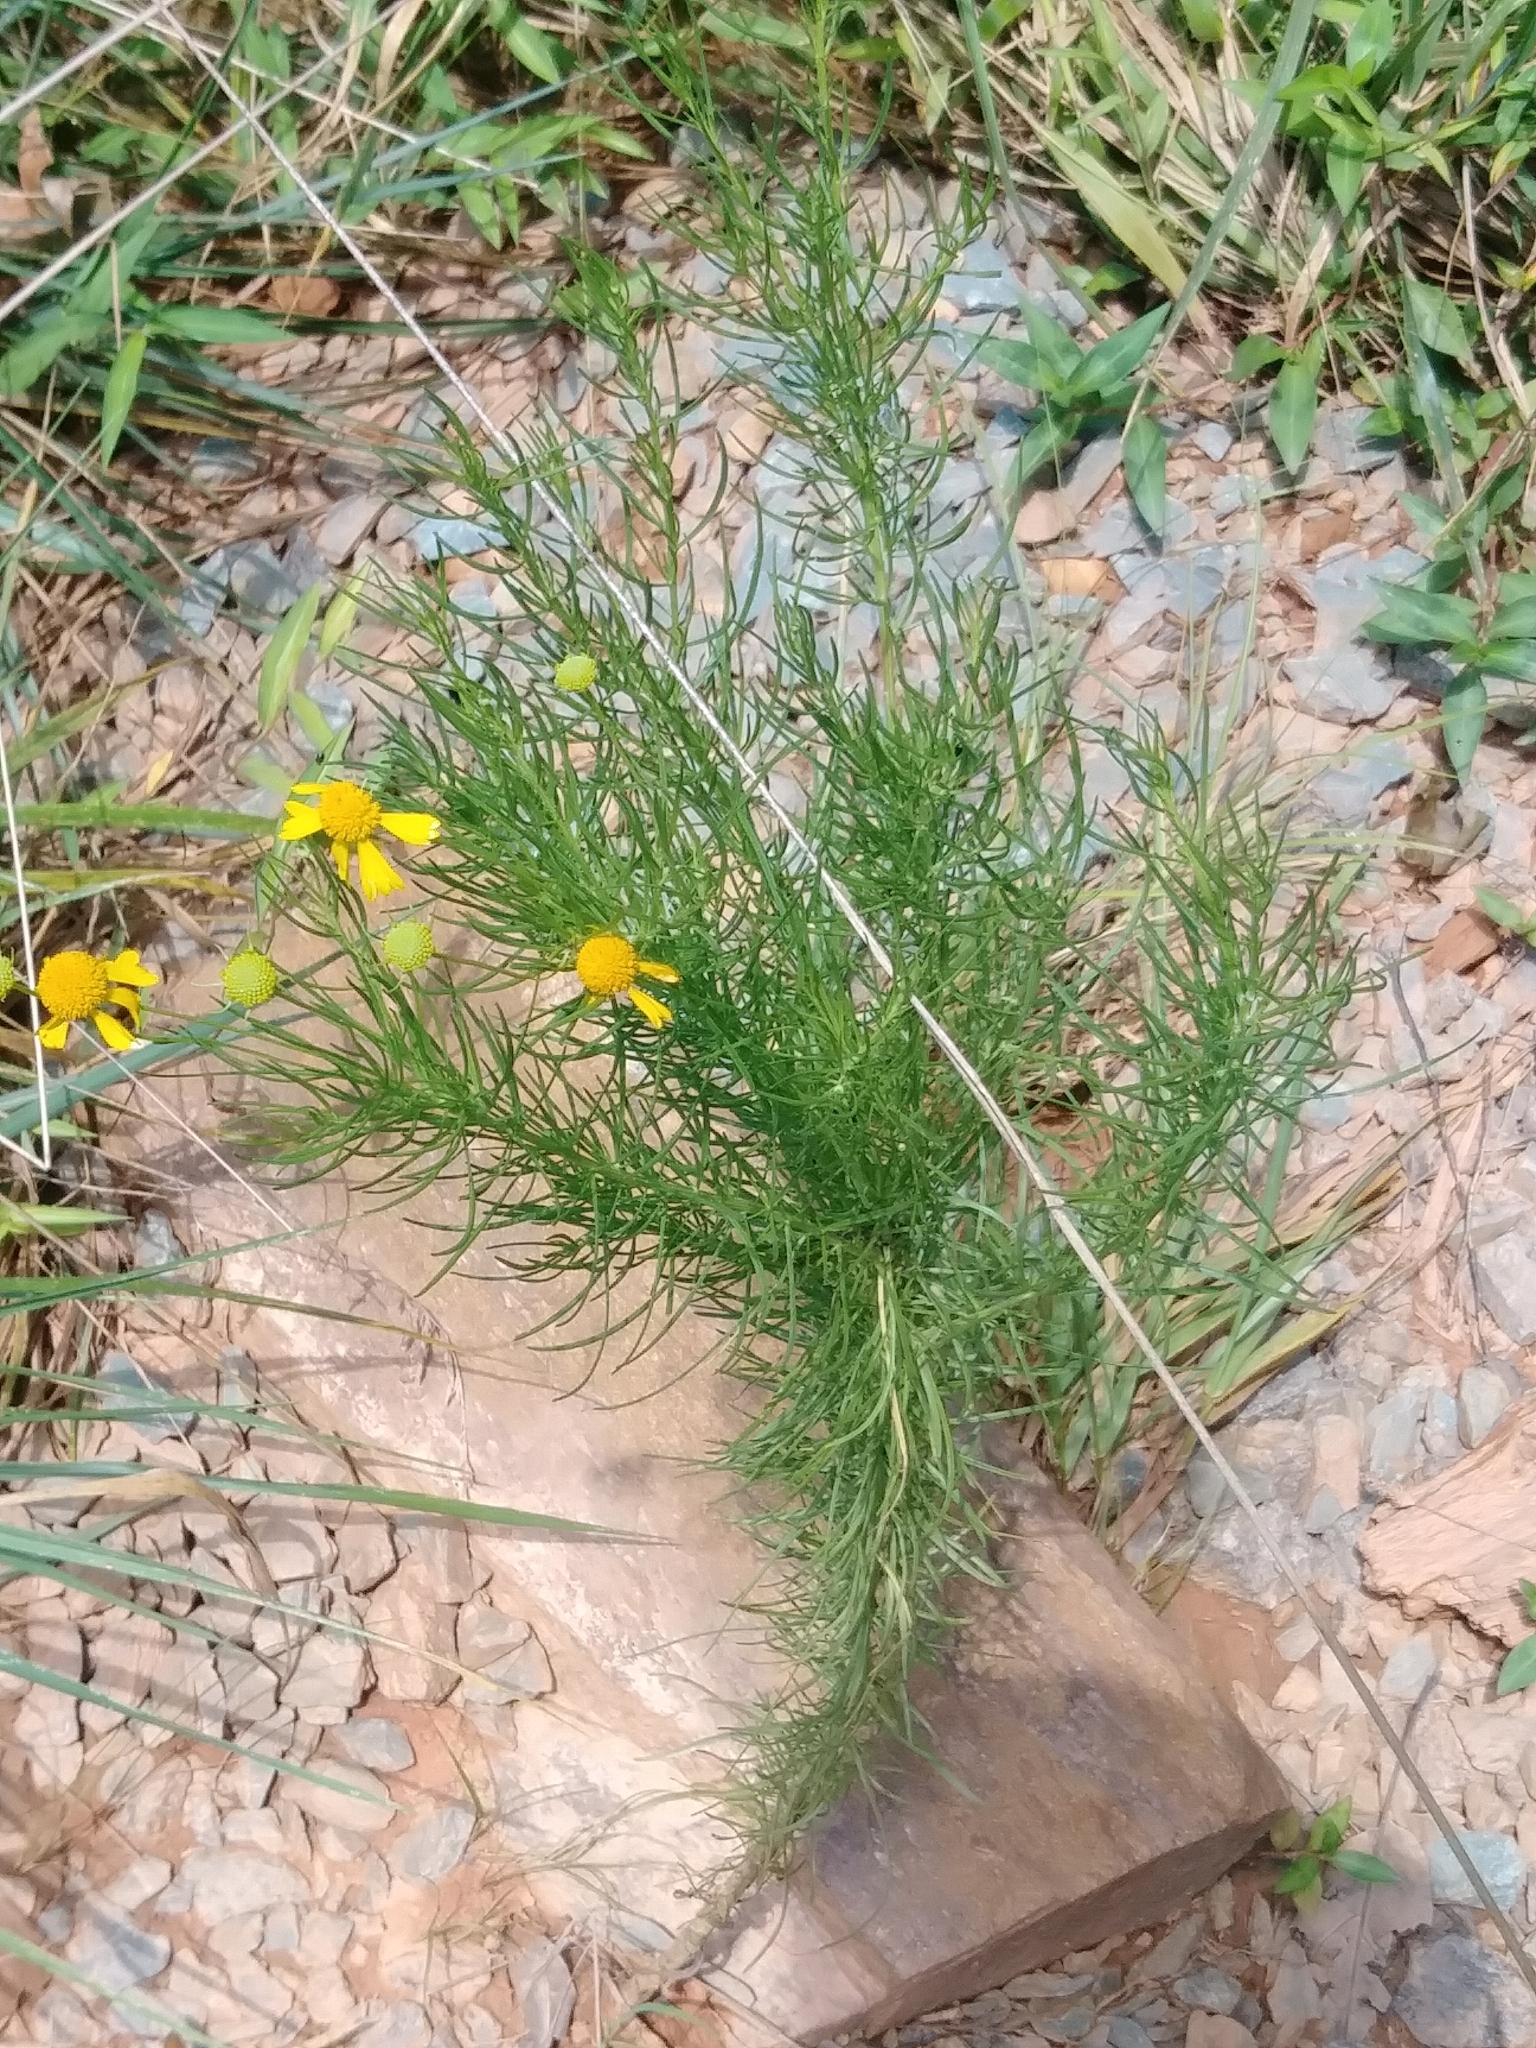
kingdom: Plantae
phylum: Tracheophyta
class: Magnoliopsida
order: Asterales
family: Asteraceae
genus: Helenium
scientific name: Helenium amarum
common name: Bitter sneezeweed
